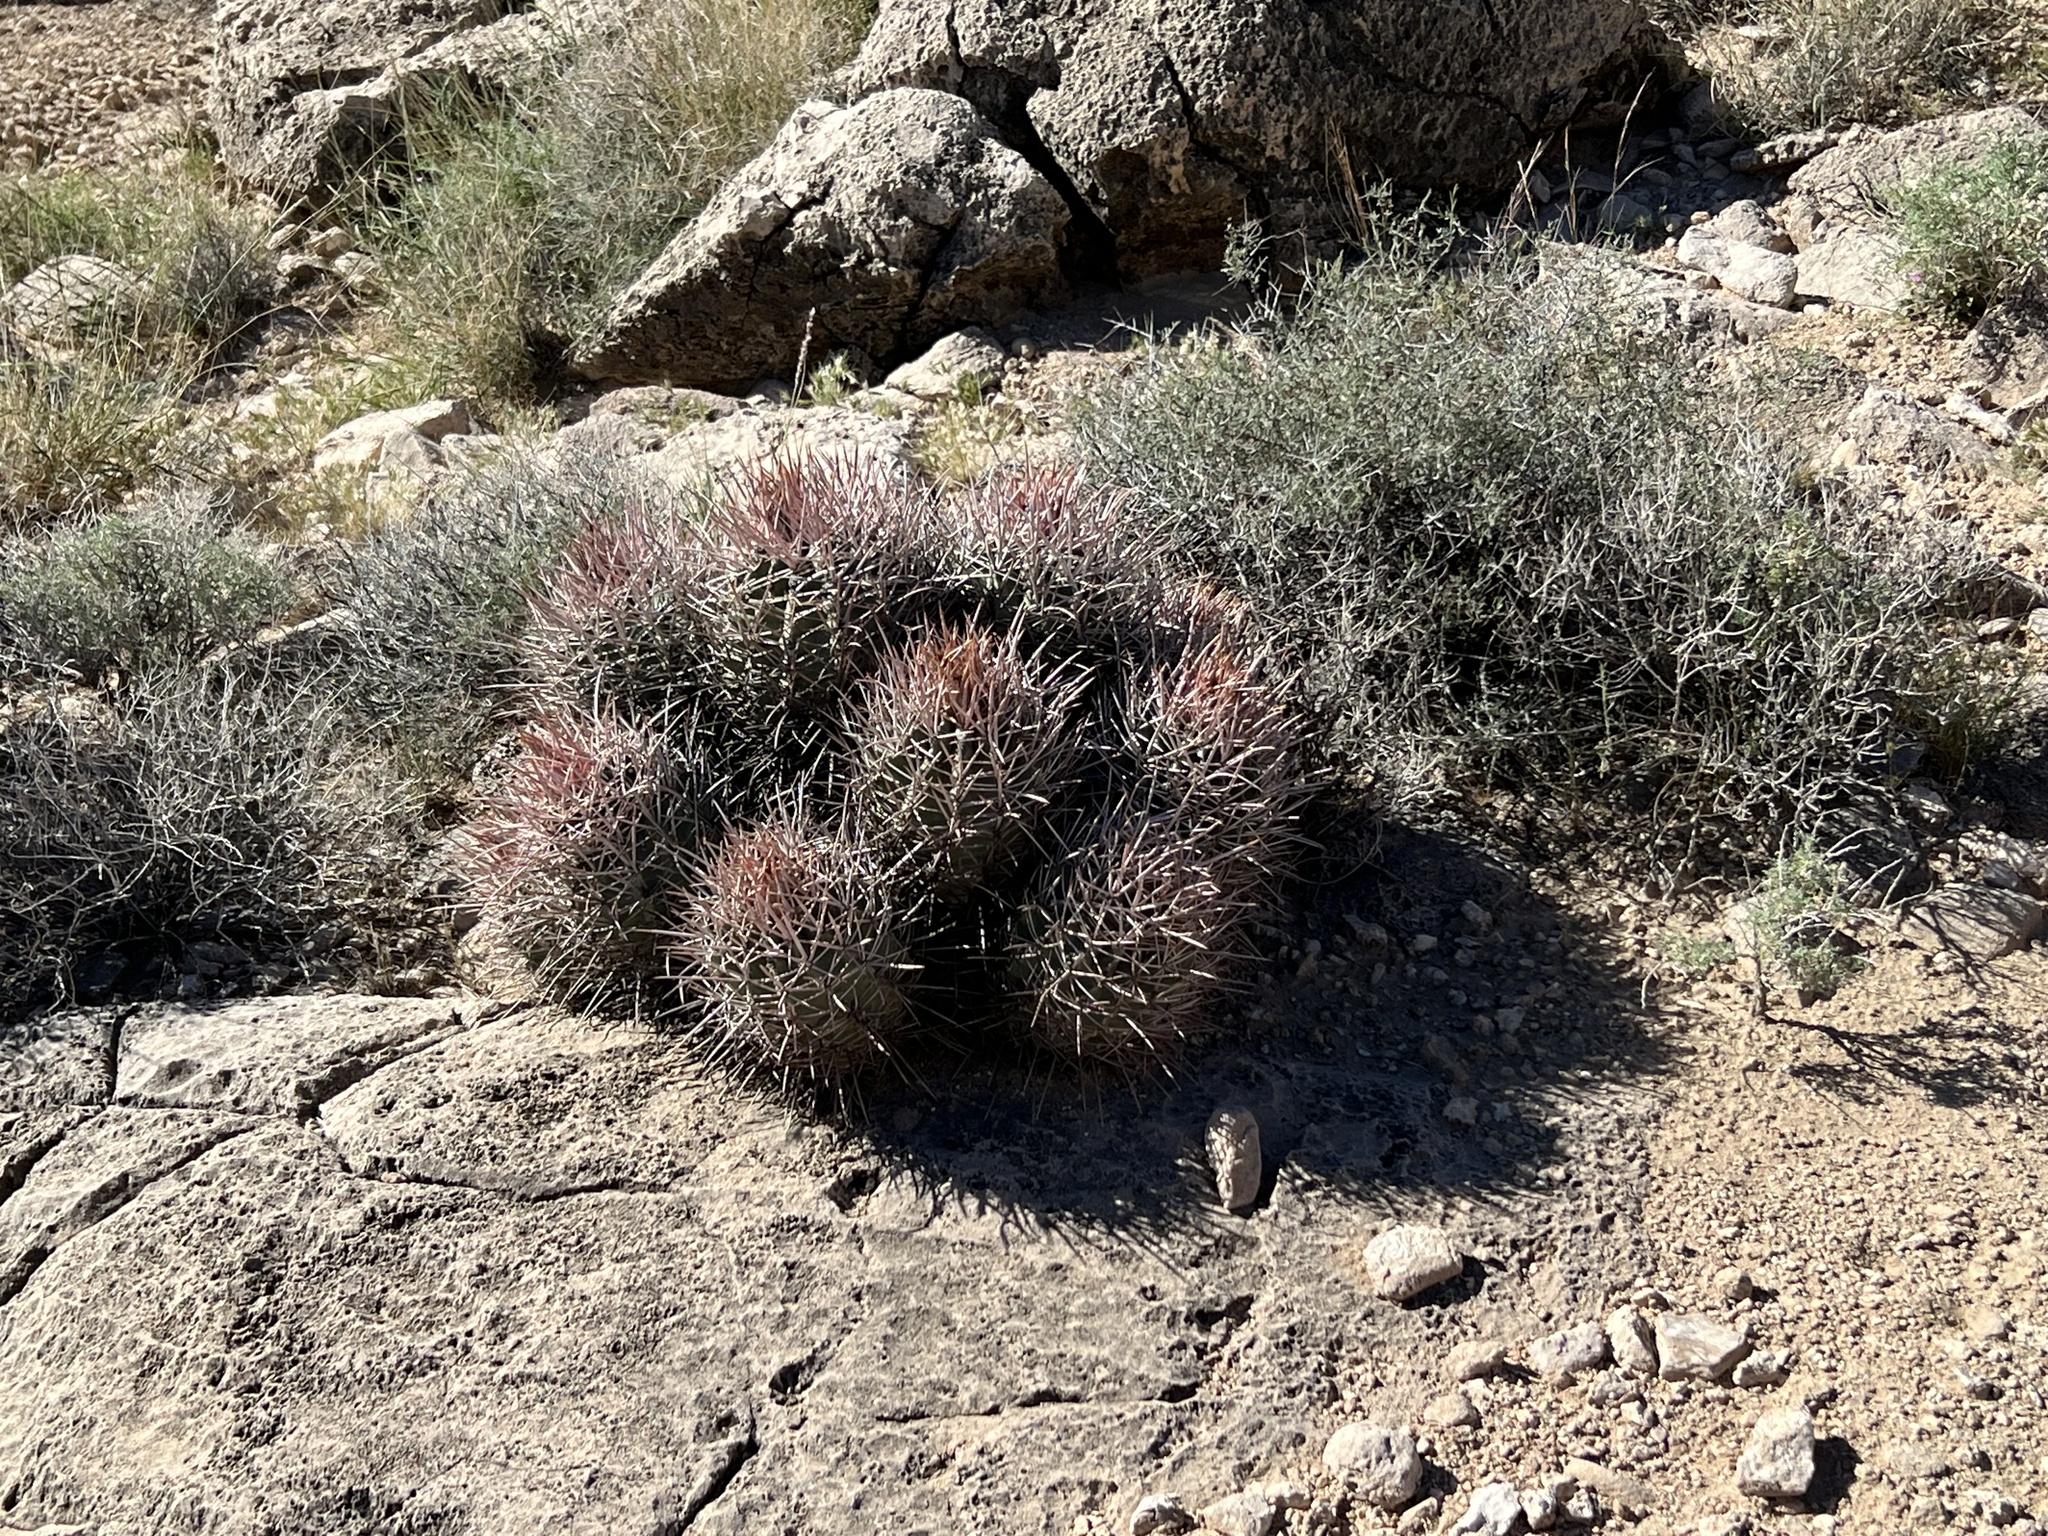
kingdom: Plantae
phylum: Tracheophyta
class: Magnoliopsida
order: Caryophyllales
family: Cactaceae
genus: Echinocactus
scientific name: Echinocactus polycephalus
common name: Cottontop cactus
